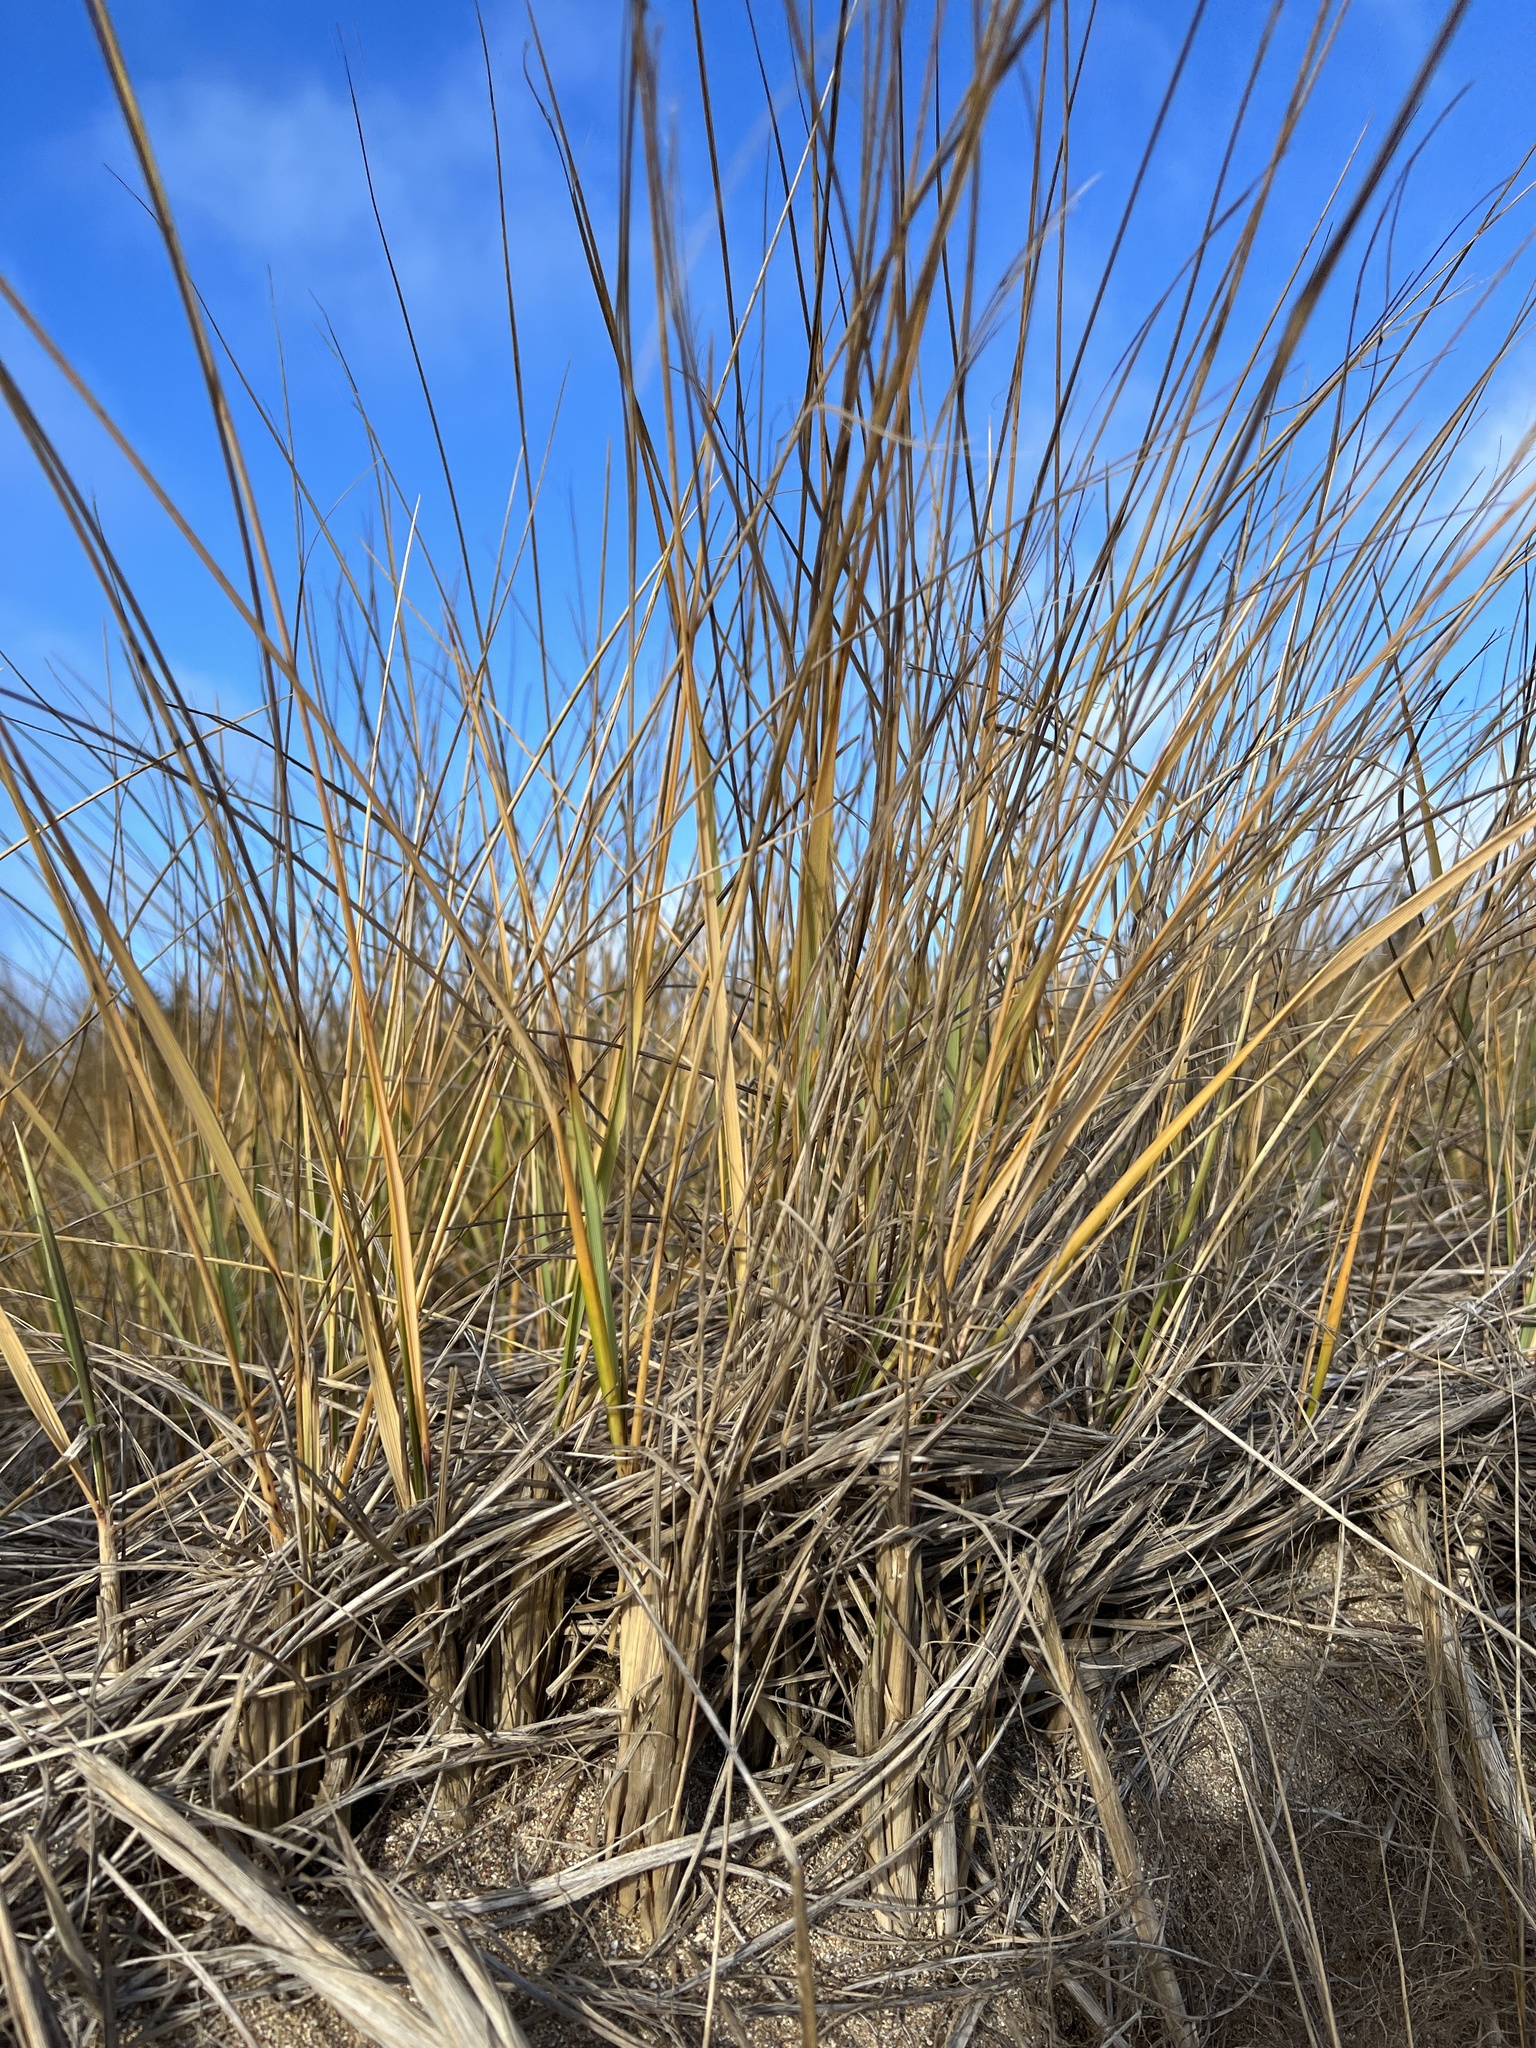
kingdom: Plantae
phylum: Tracheophyta
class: Liliopsida
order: Poales
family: Poaceae
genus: Calamagrostis
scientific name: Calamagrostis breviligulata
